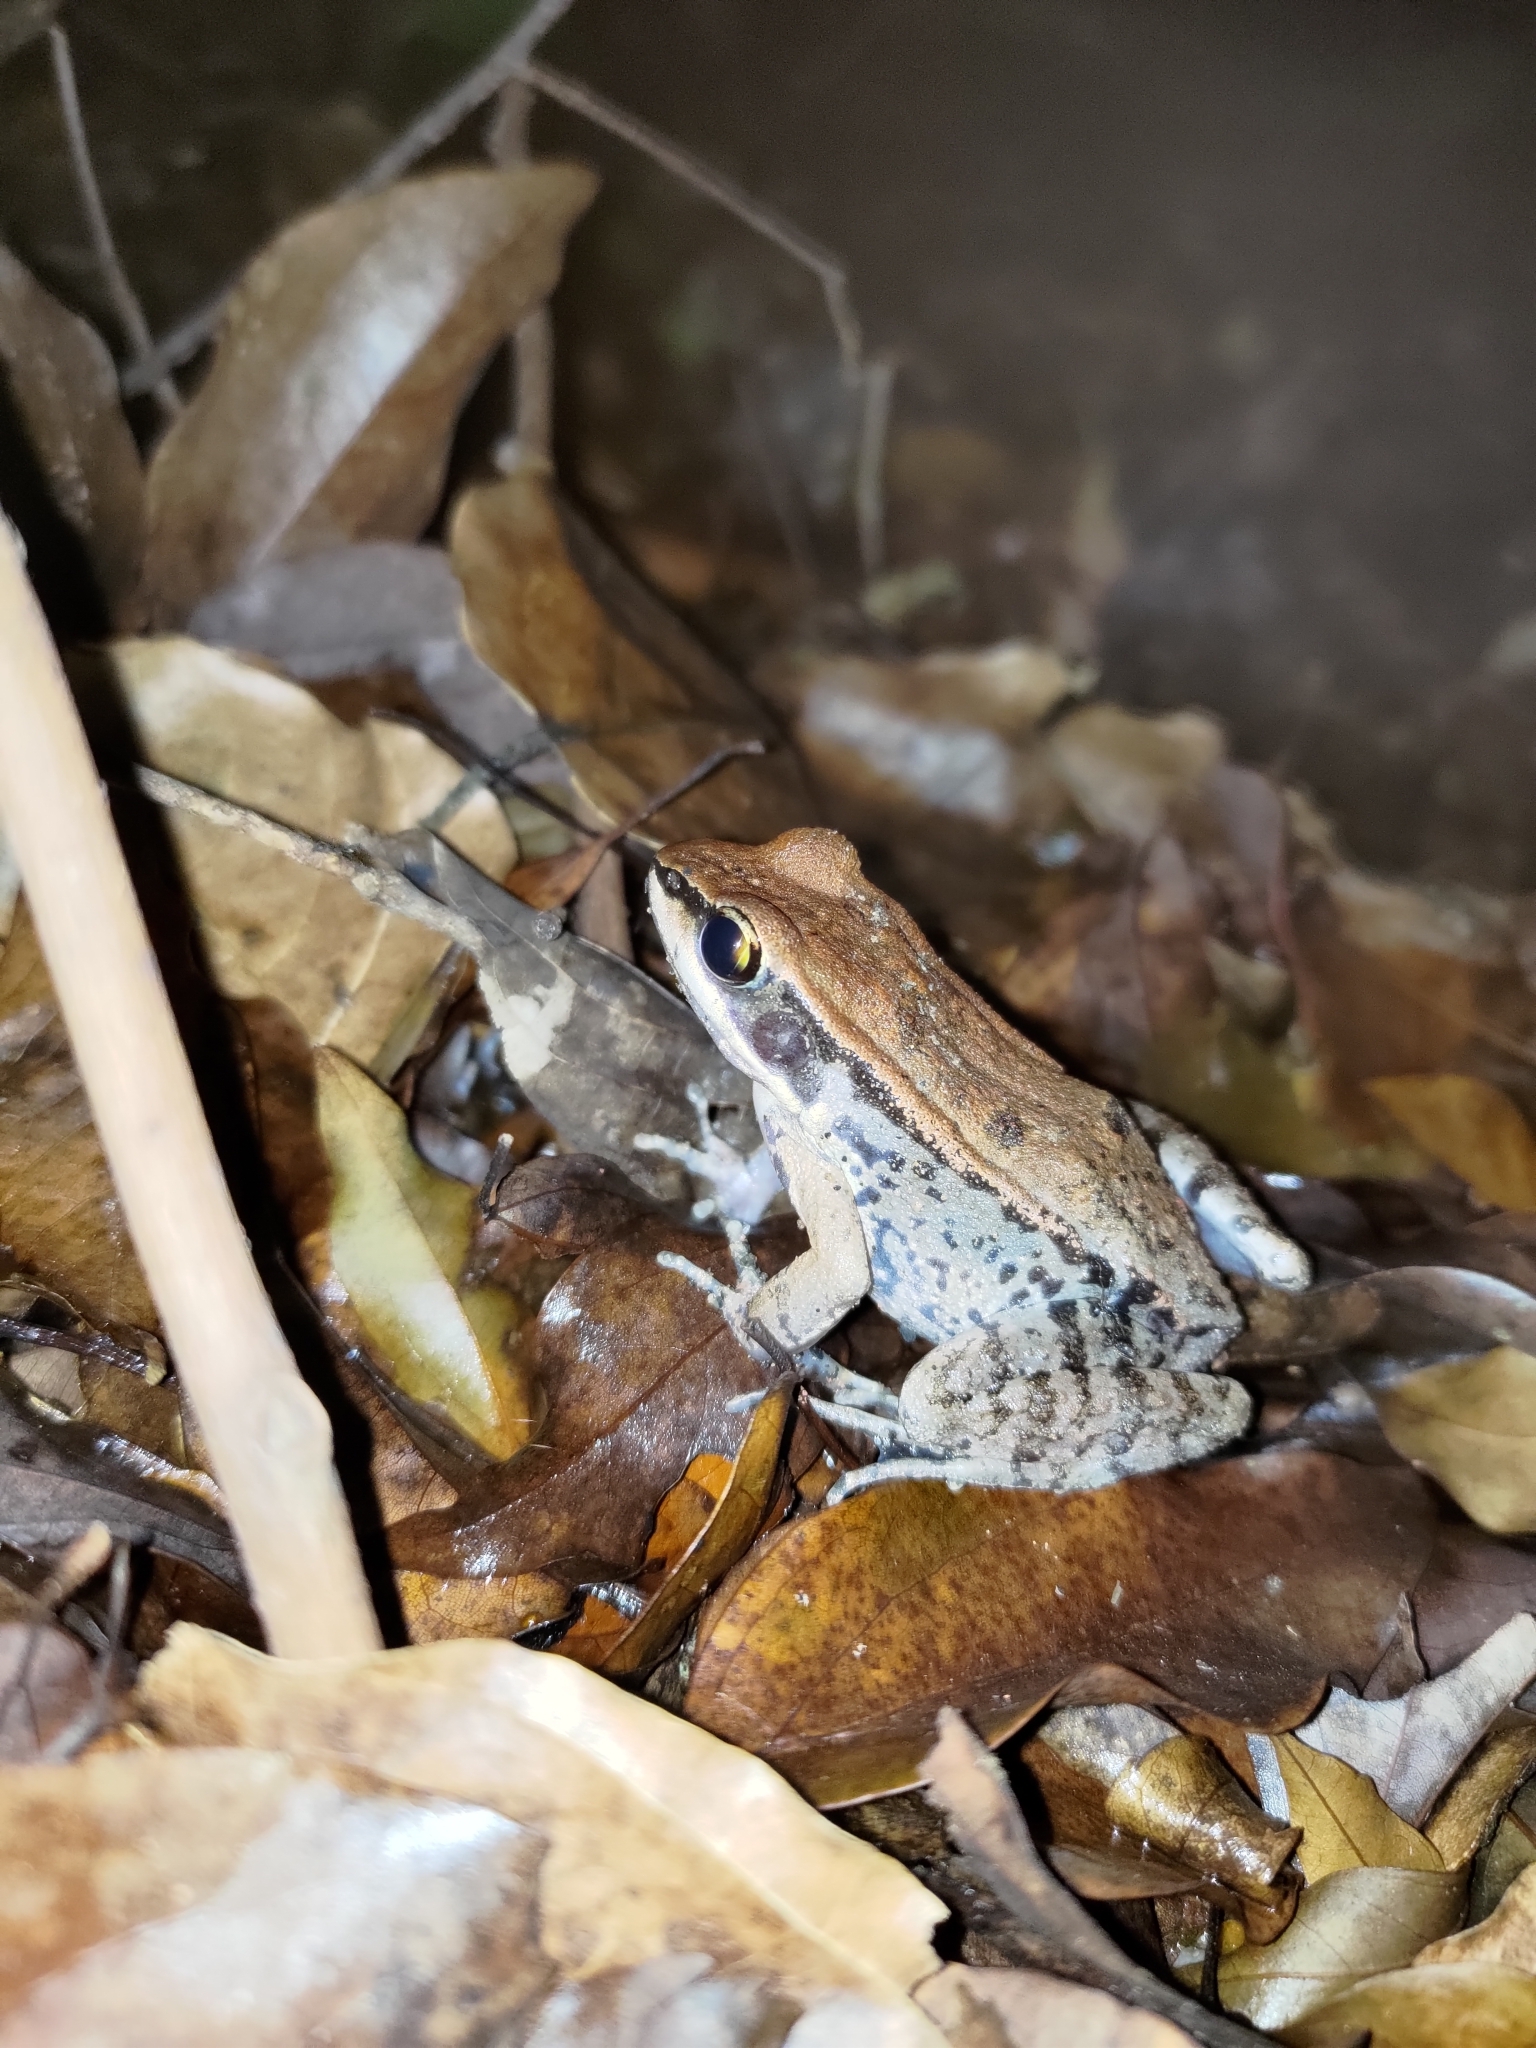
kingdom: Animalia
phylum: Chordata
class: Amphibia
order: Anura
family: Ranidae
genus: Hylarana
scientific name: Hylarana latouchii
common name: Broad-folded frog
